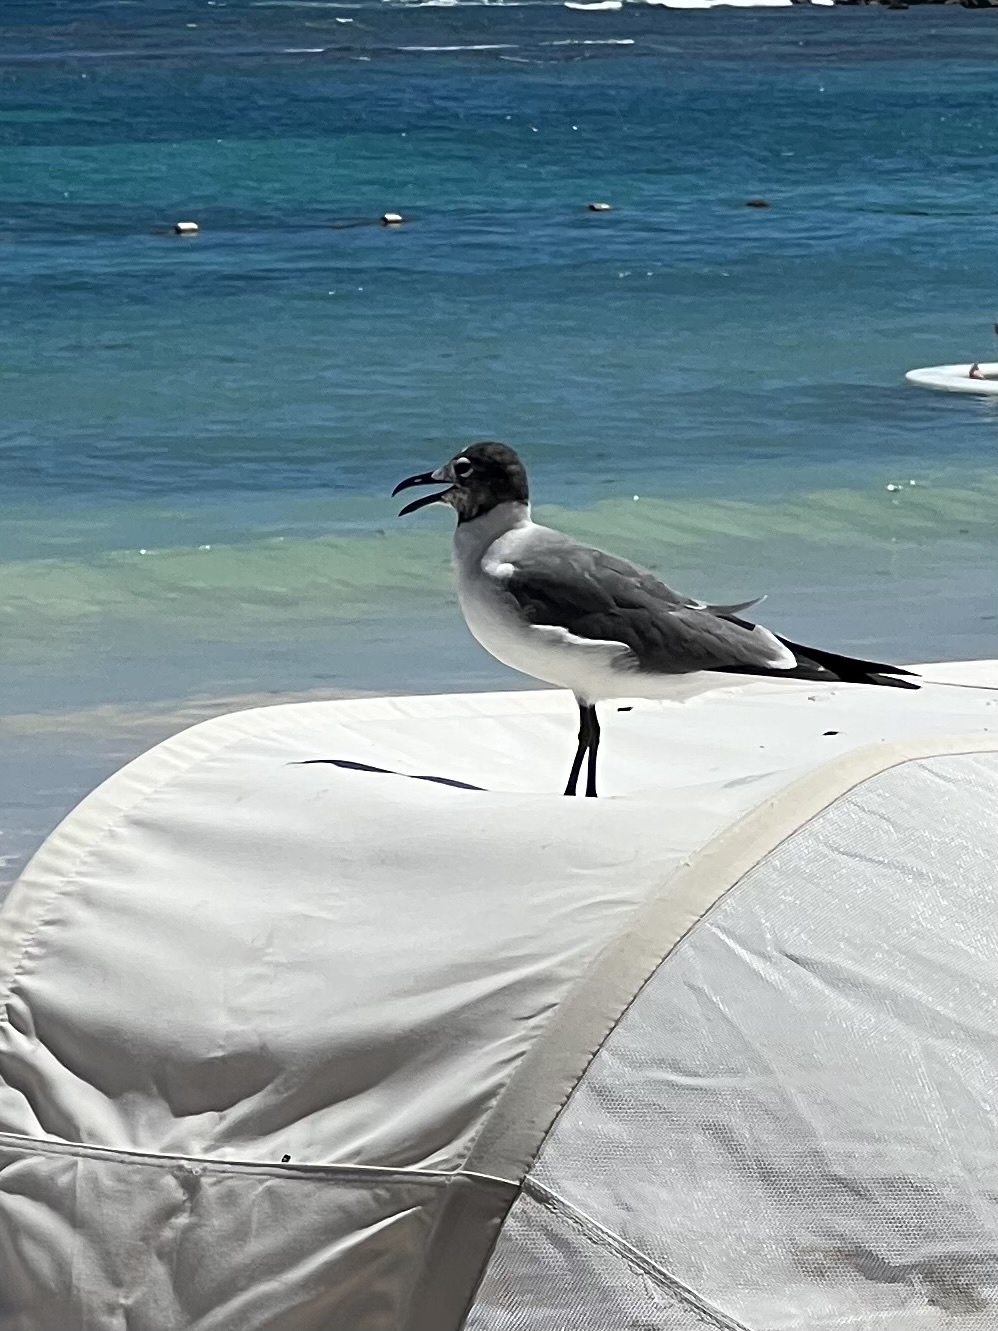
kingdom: Animalia
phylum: Chordata
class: Aves
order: Charadriiformes
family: Laridae
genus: Leucophaeus
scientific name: Leucophaeus atricilla
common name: Laughing gull
